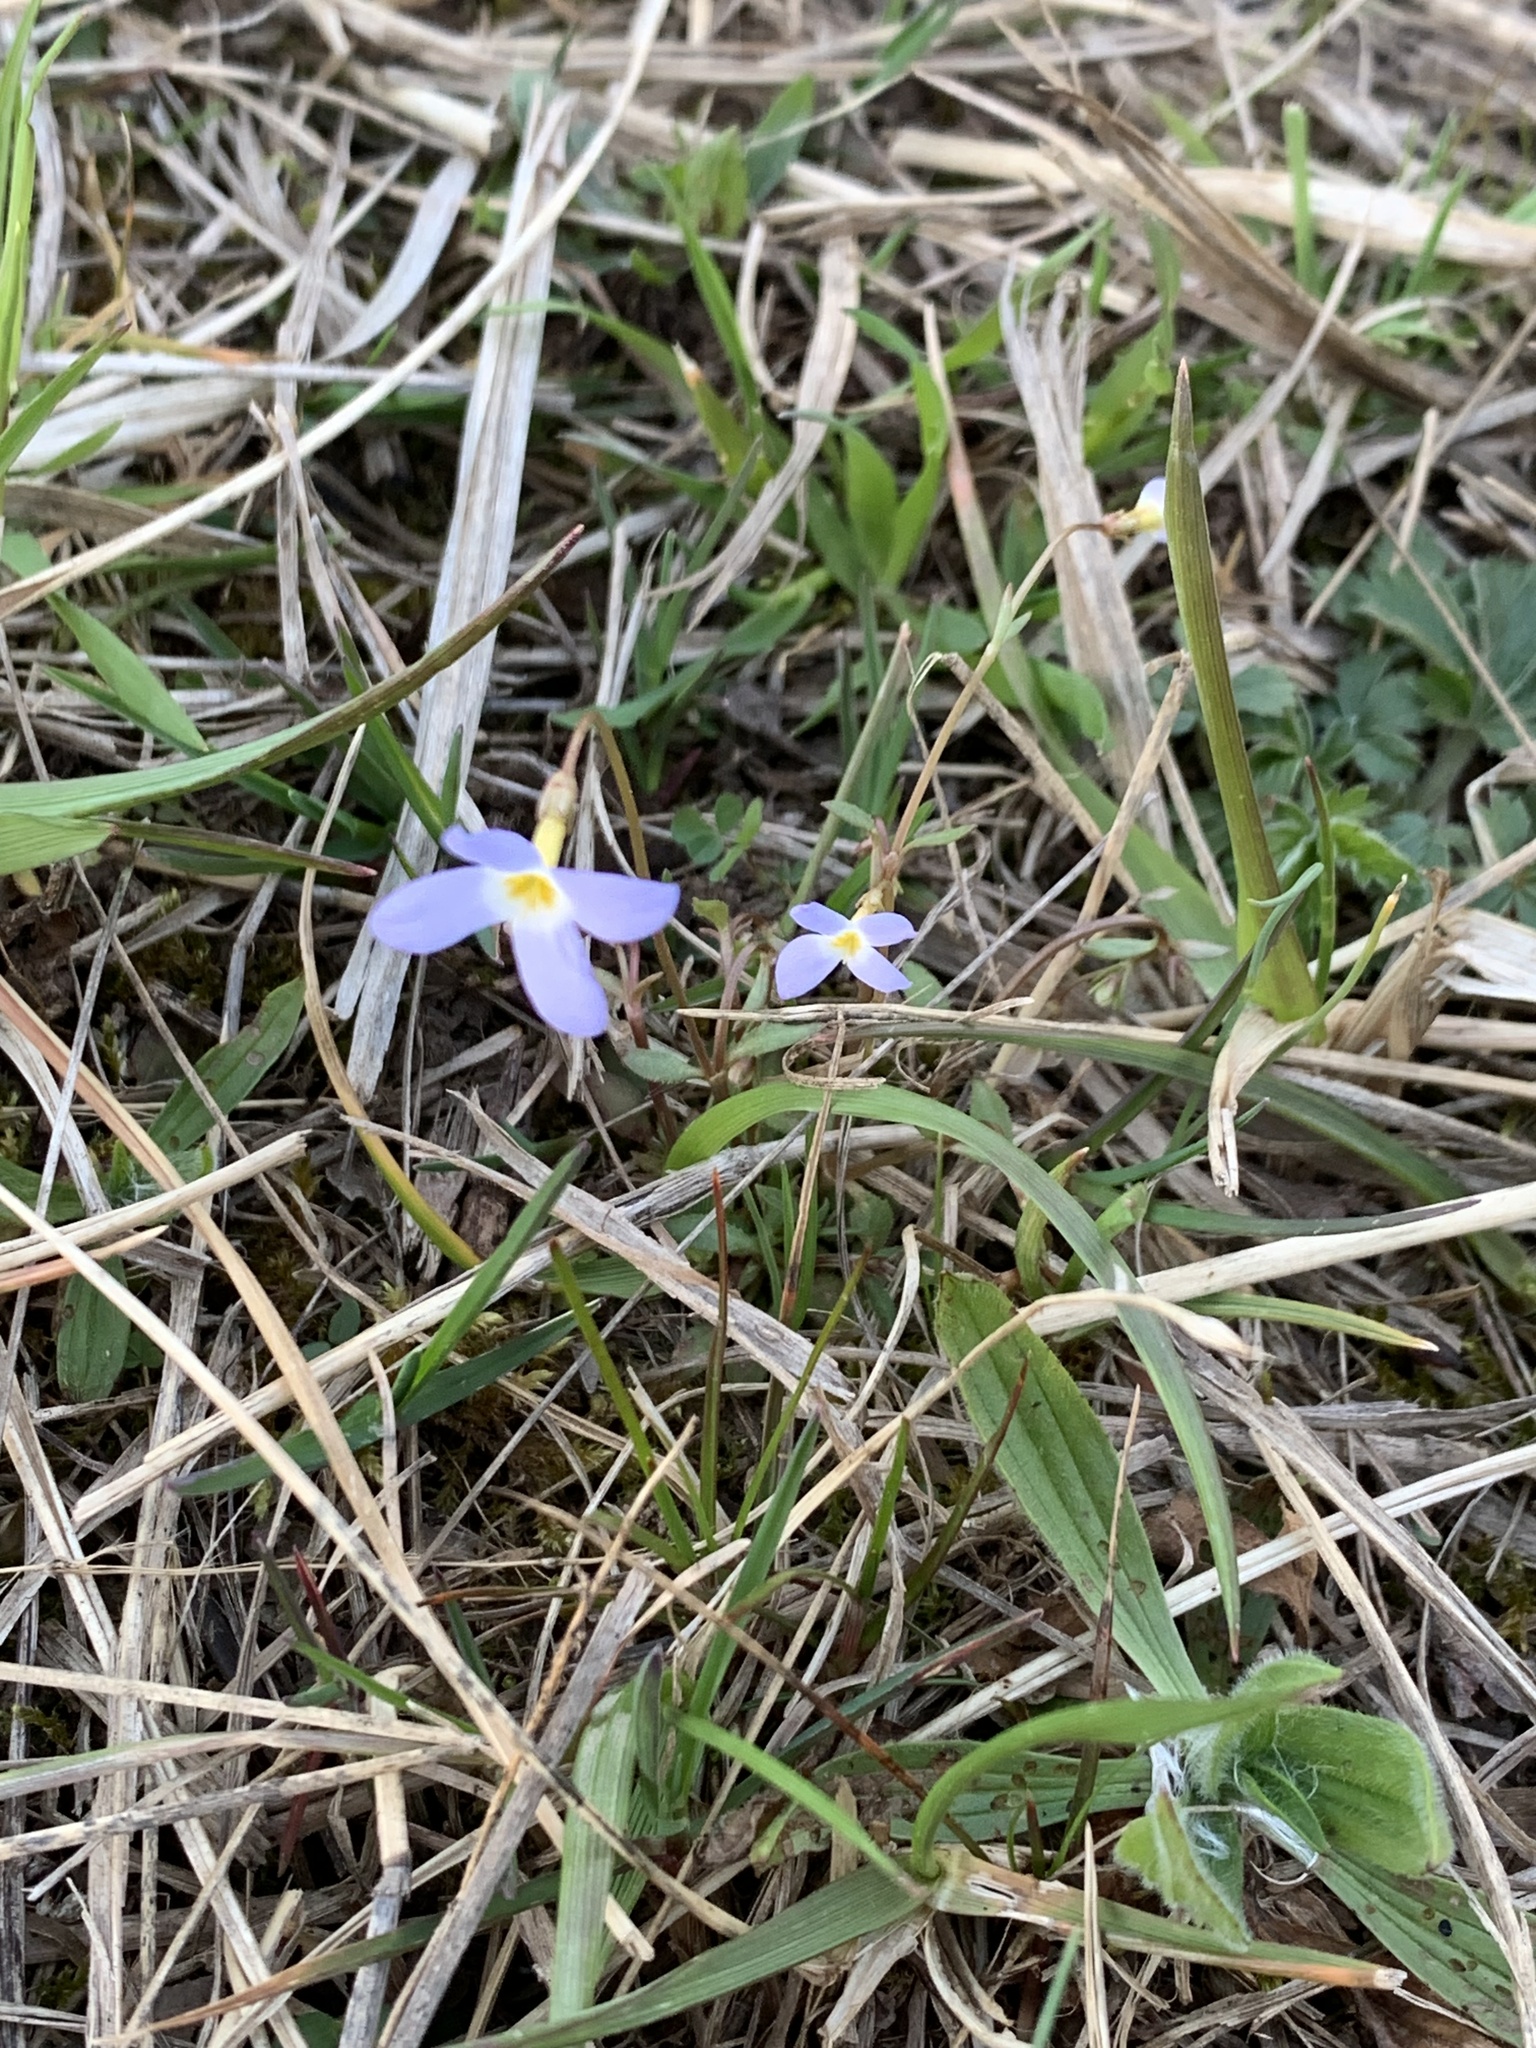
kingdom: Plantae
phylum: Tracheophyta
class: Magnoliopsida
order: Gentianales
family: Rubiaceae
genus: Houstonia
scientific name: Houstonia caerulea
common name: Bluets
